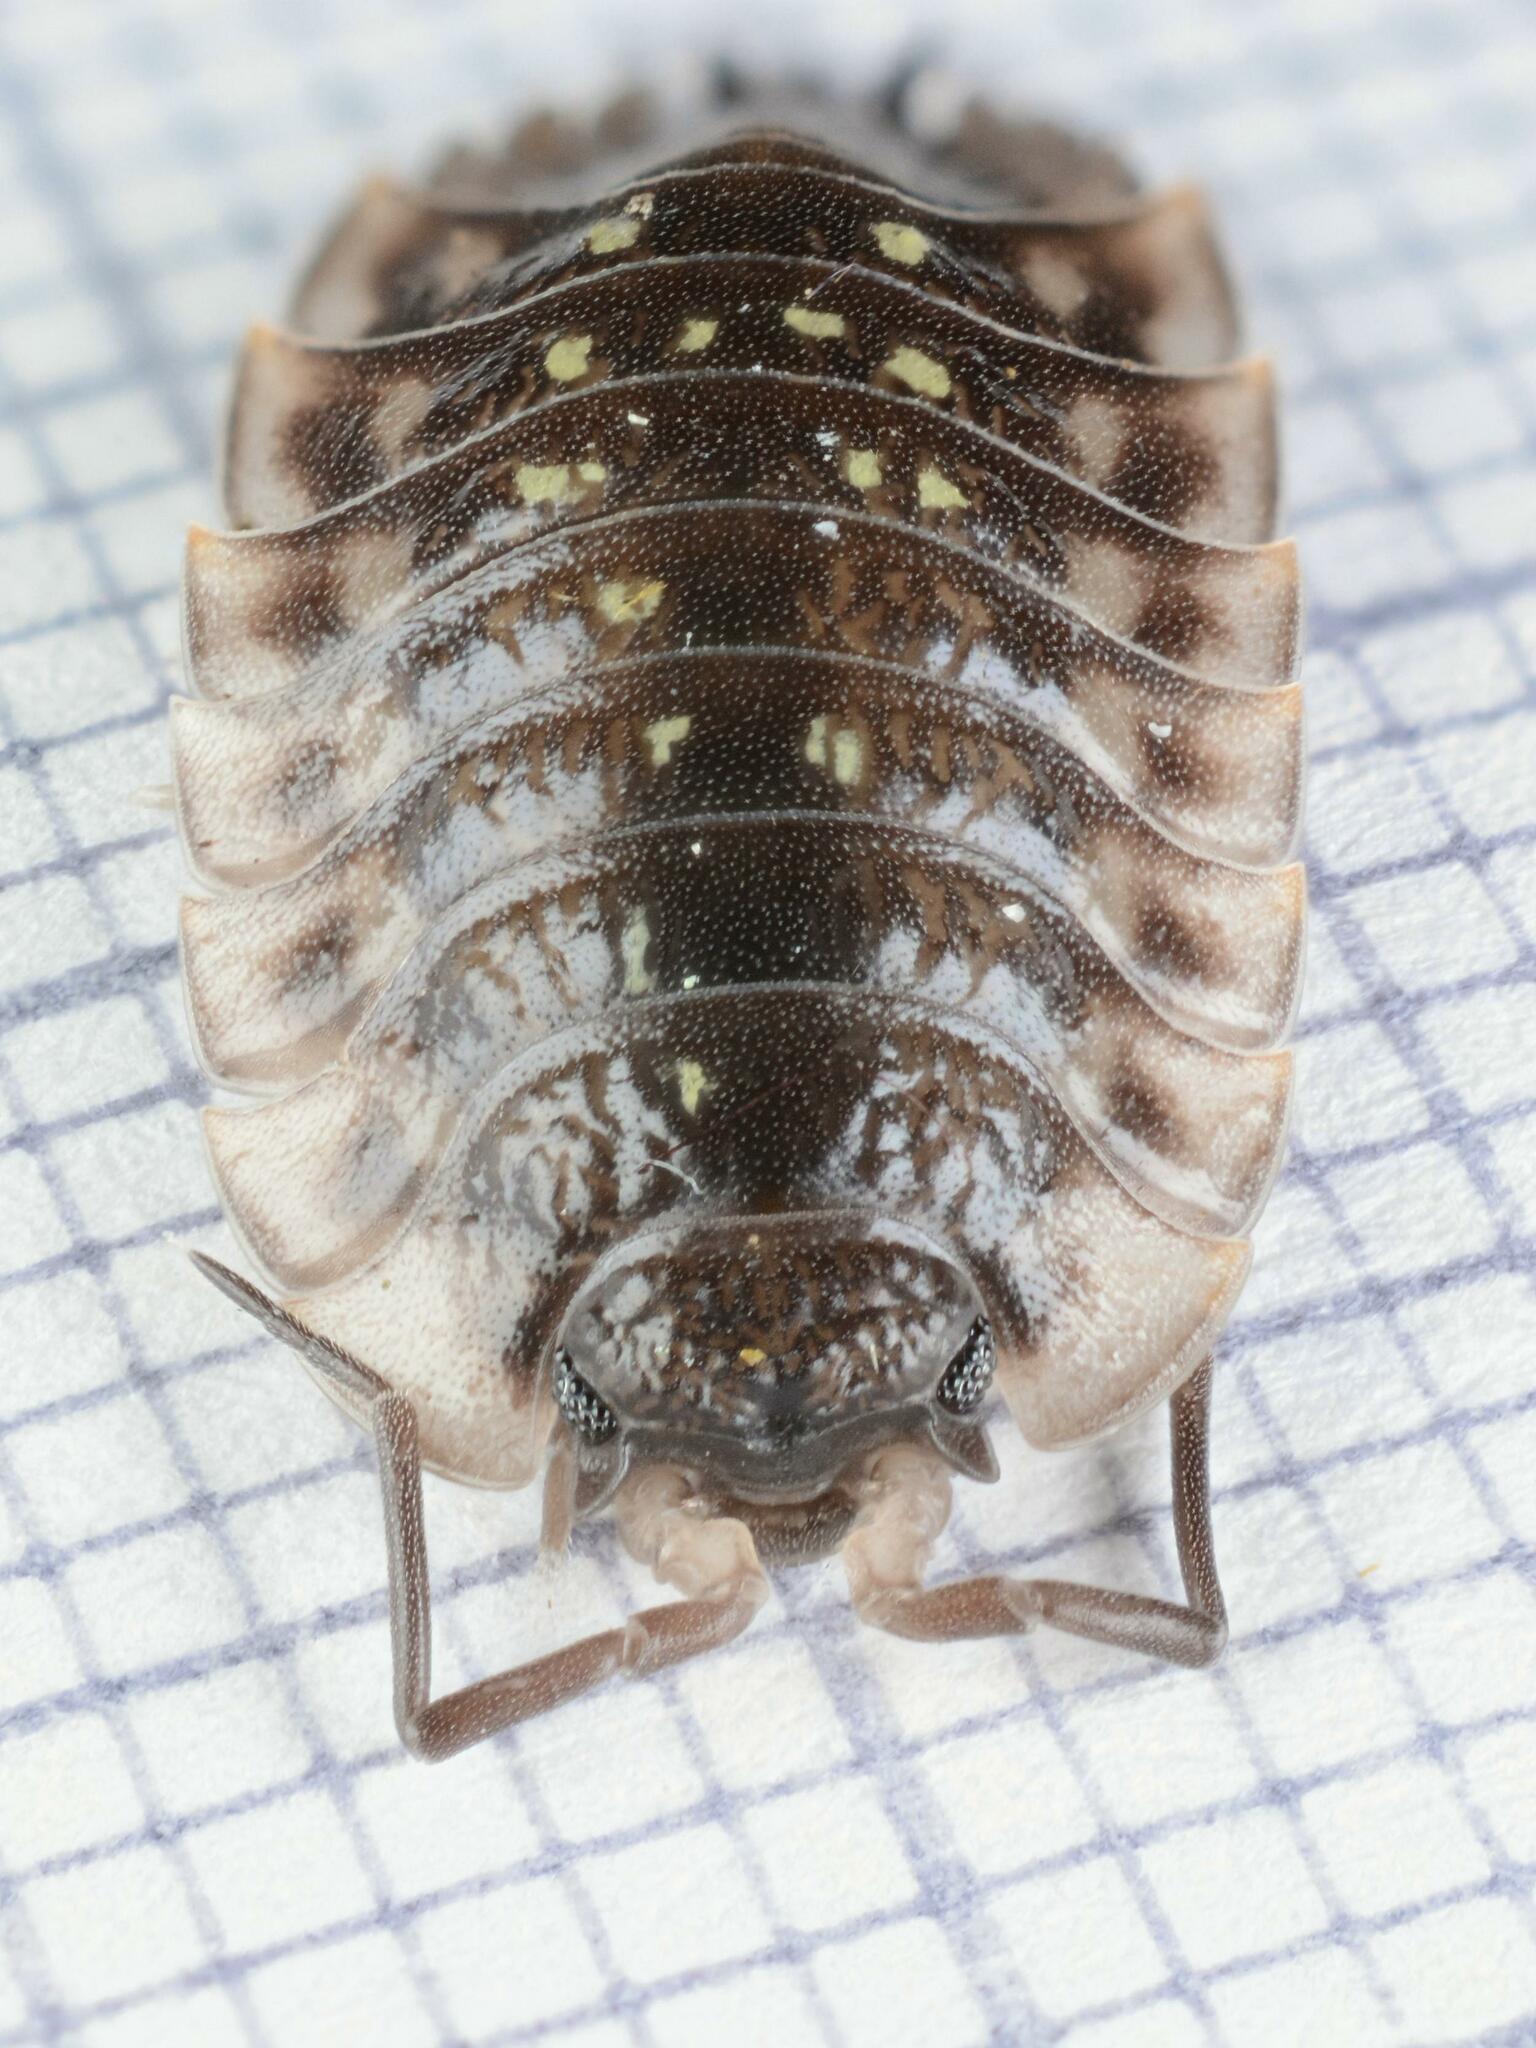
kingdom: Animalia
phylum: Arthropoda
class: Malacostraca
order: Isopoda
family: Oniscidae
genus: Oniscus
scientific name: Oniscus asellus
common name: Common shiny woodlouse
